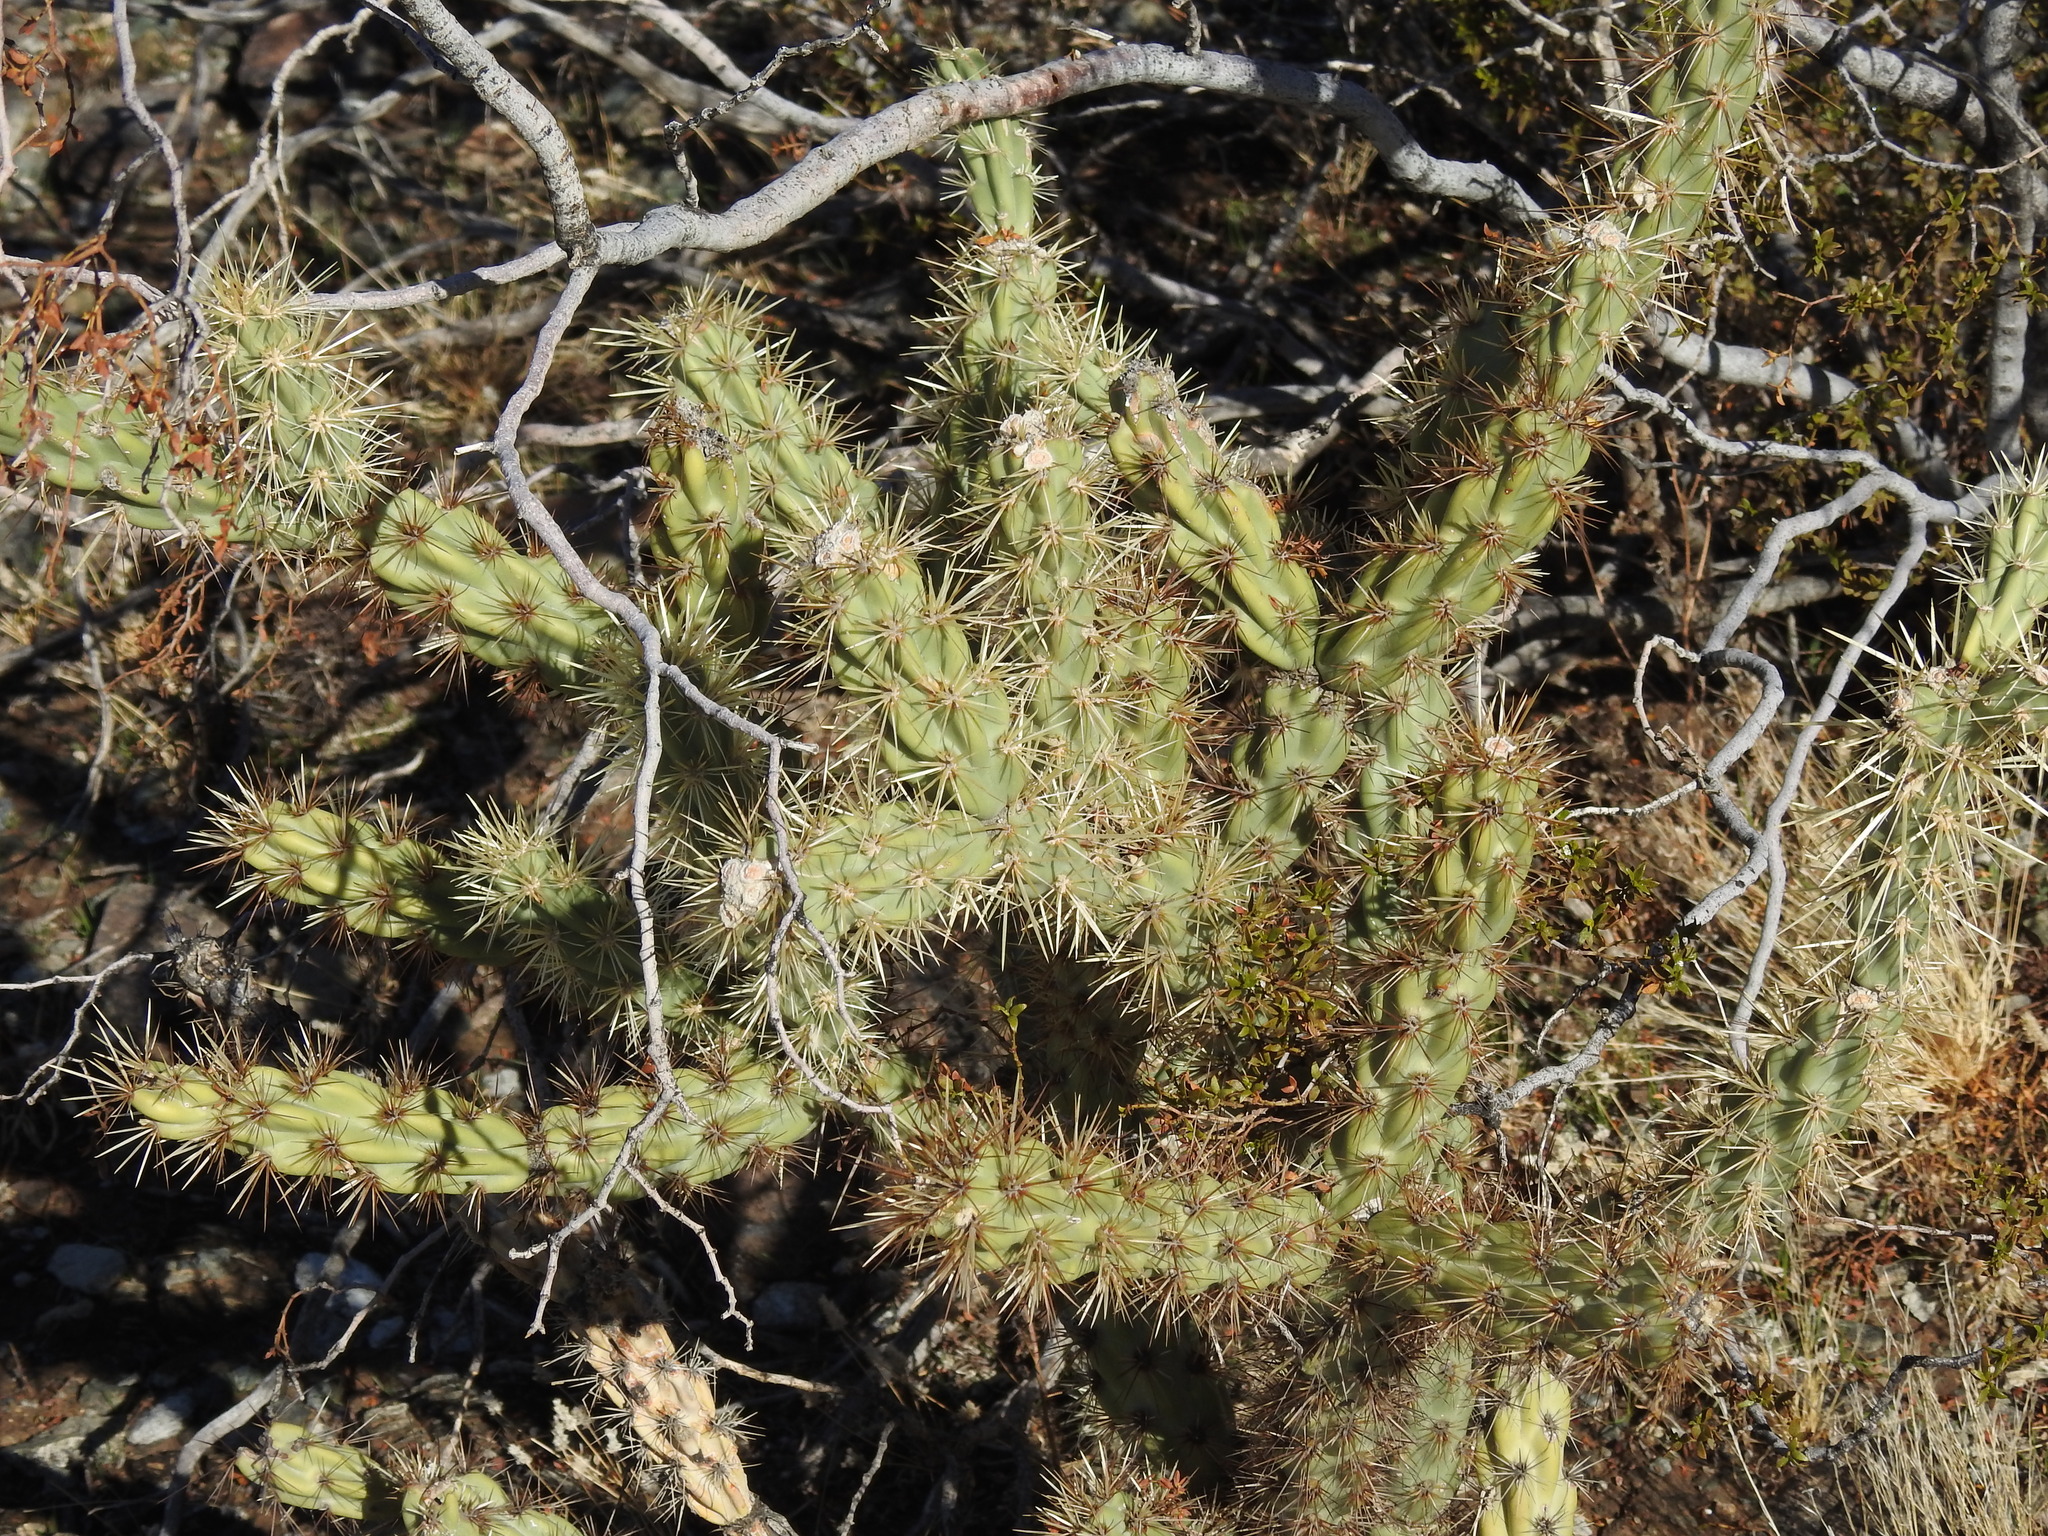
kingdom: Plantae
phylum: Tracheophyta
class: Magnoliopsida
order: Caryophyllales
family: Cactaceae
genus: Cylindropuntia
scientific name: Cylindropuntia acanthocarpa
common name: Buckhorn cholla
